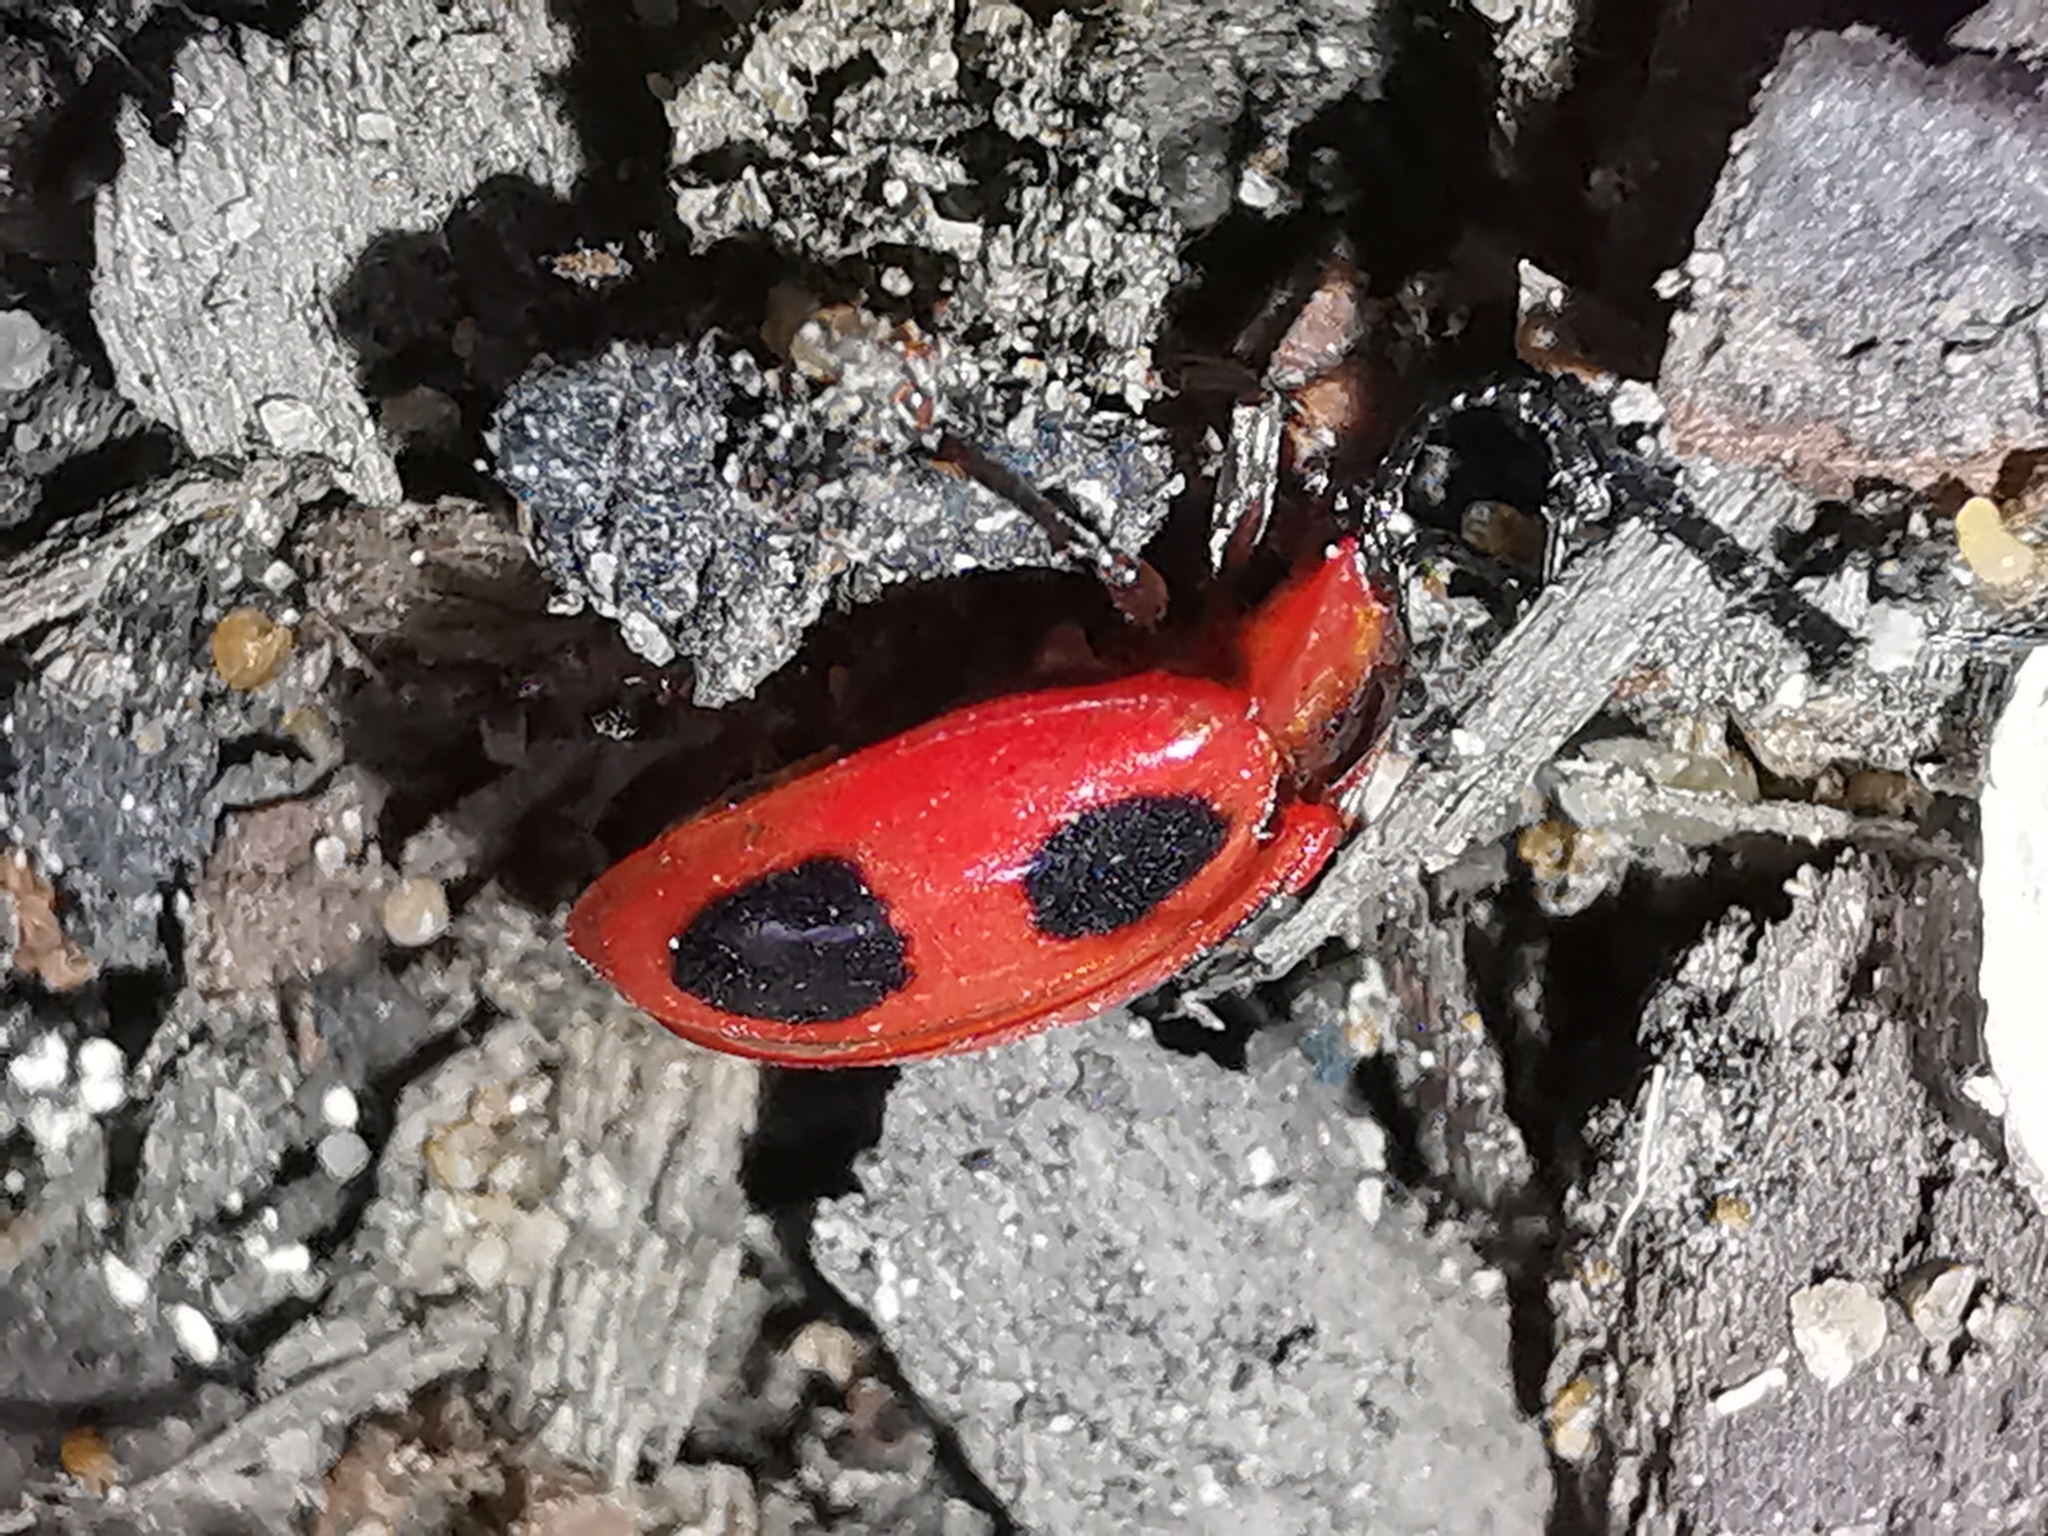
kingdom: Animalia
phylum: Arthropoda
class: Insecta
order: Coleoptera
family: Endomychidae
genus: Endomychus
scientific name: Endomychus coccineus
